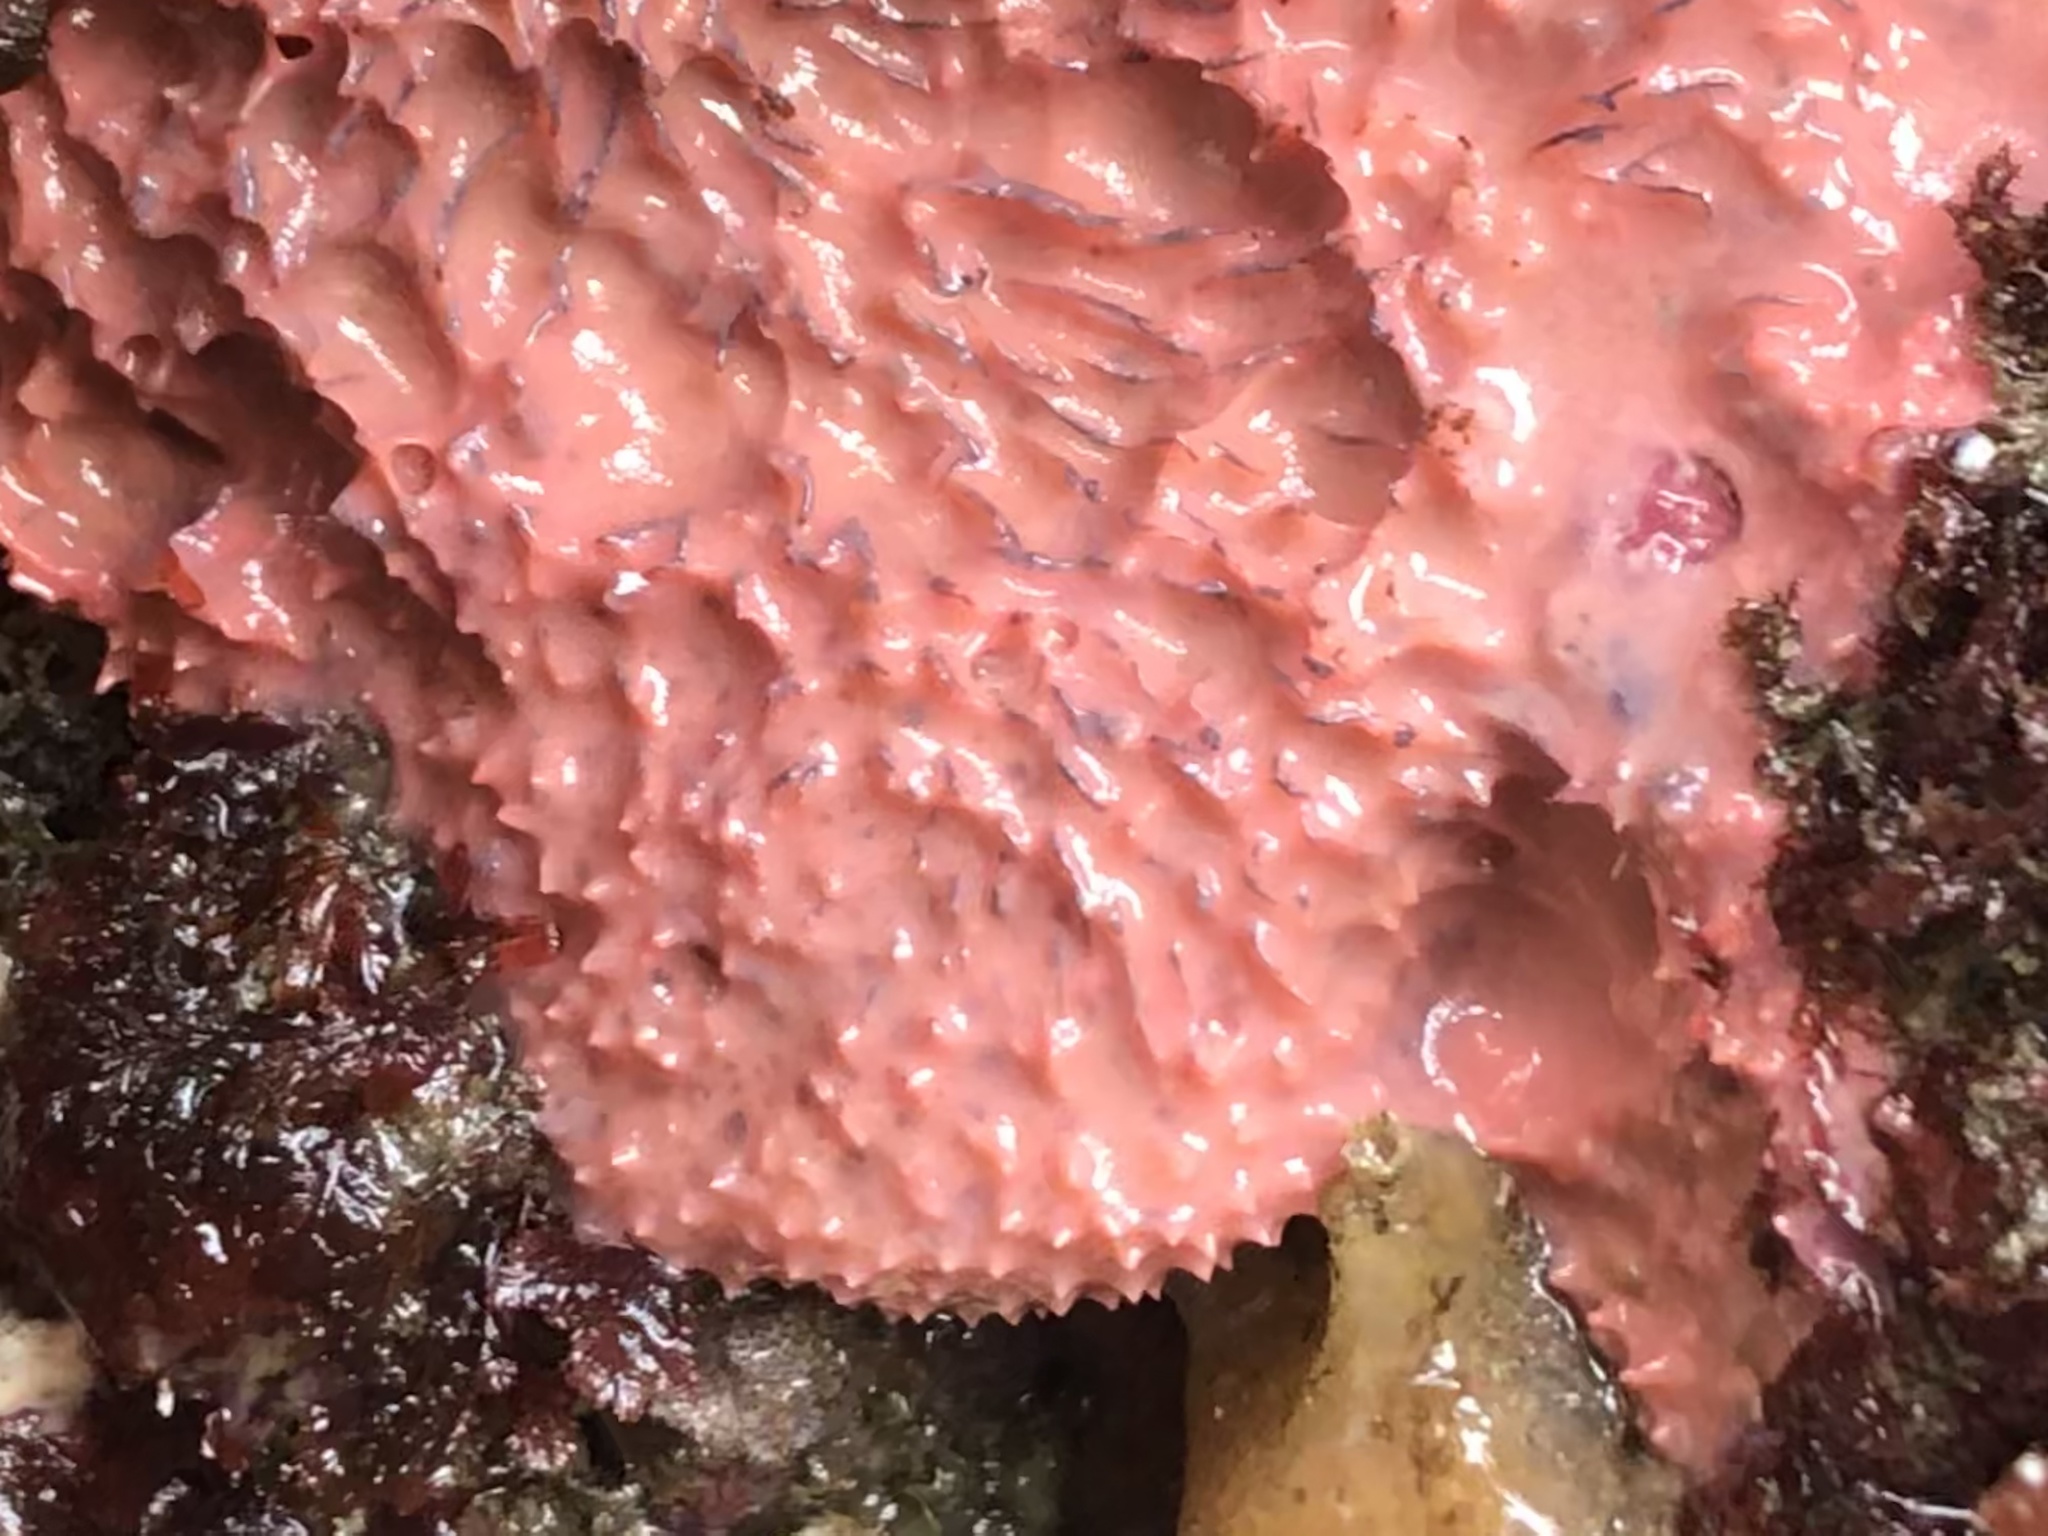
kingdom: Animalia
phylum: Porifera
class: Demospongiae
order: Dendroceratida
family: Darwinellidae
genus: Aplysilla
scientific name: Aplysilla glacialis
